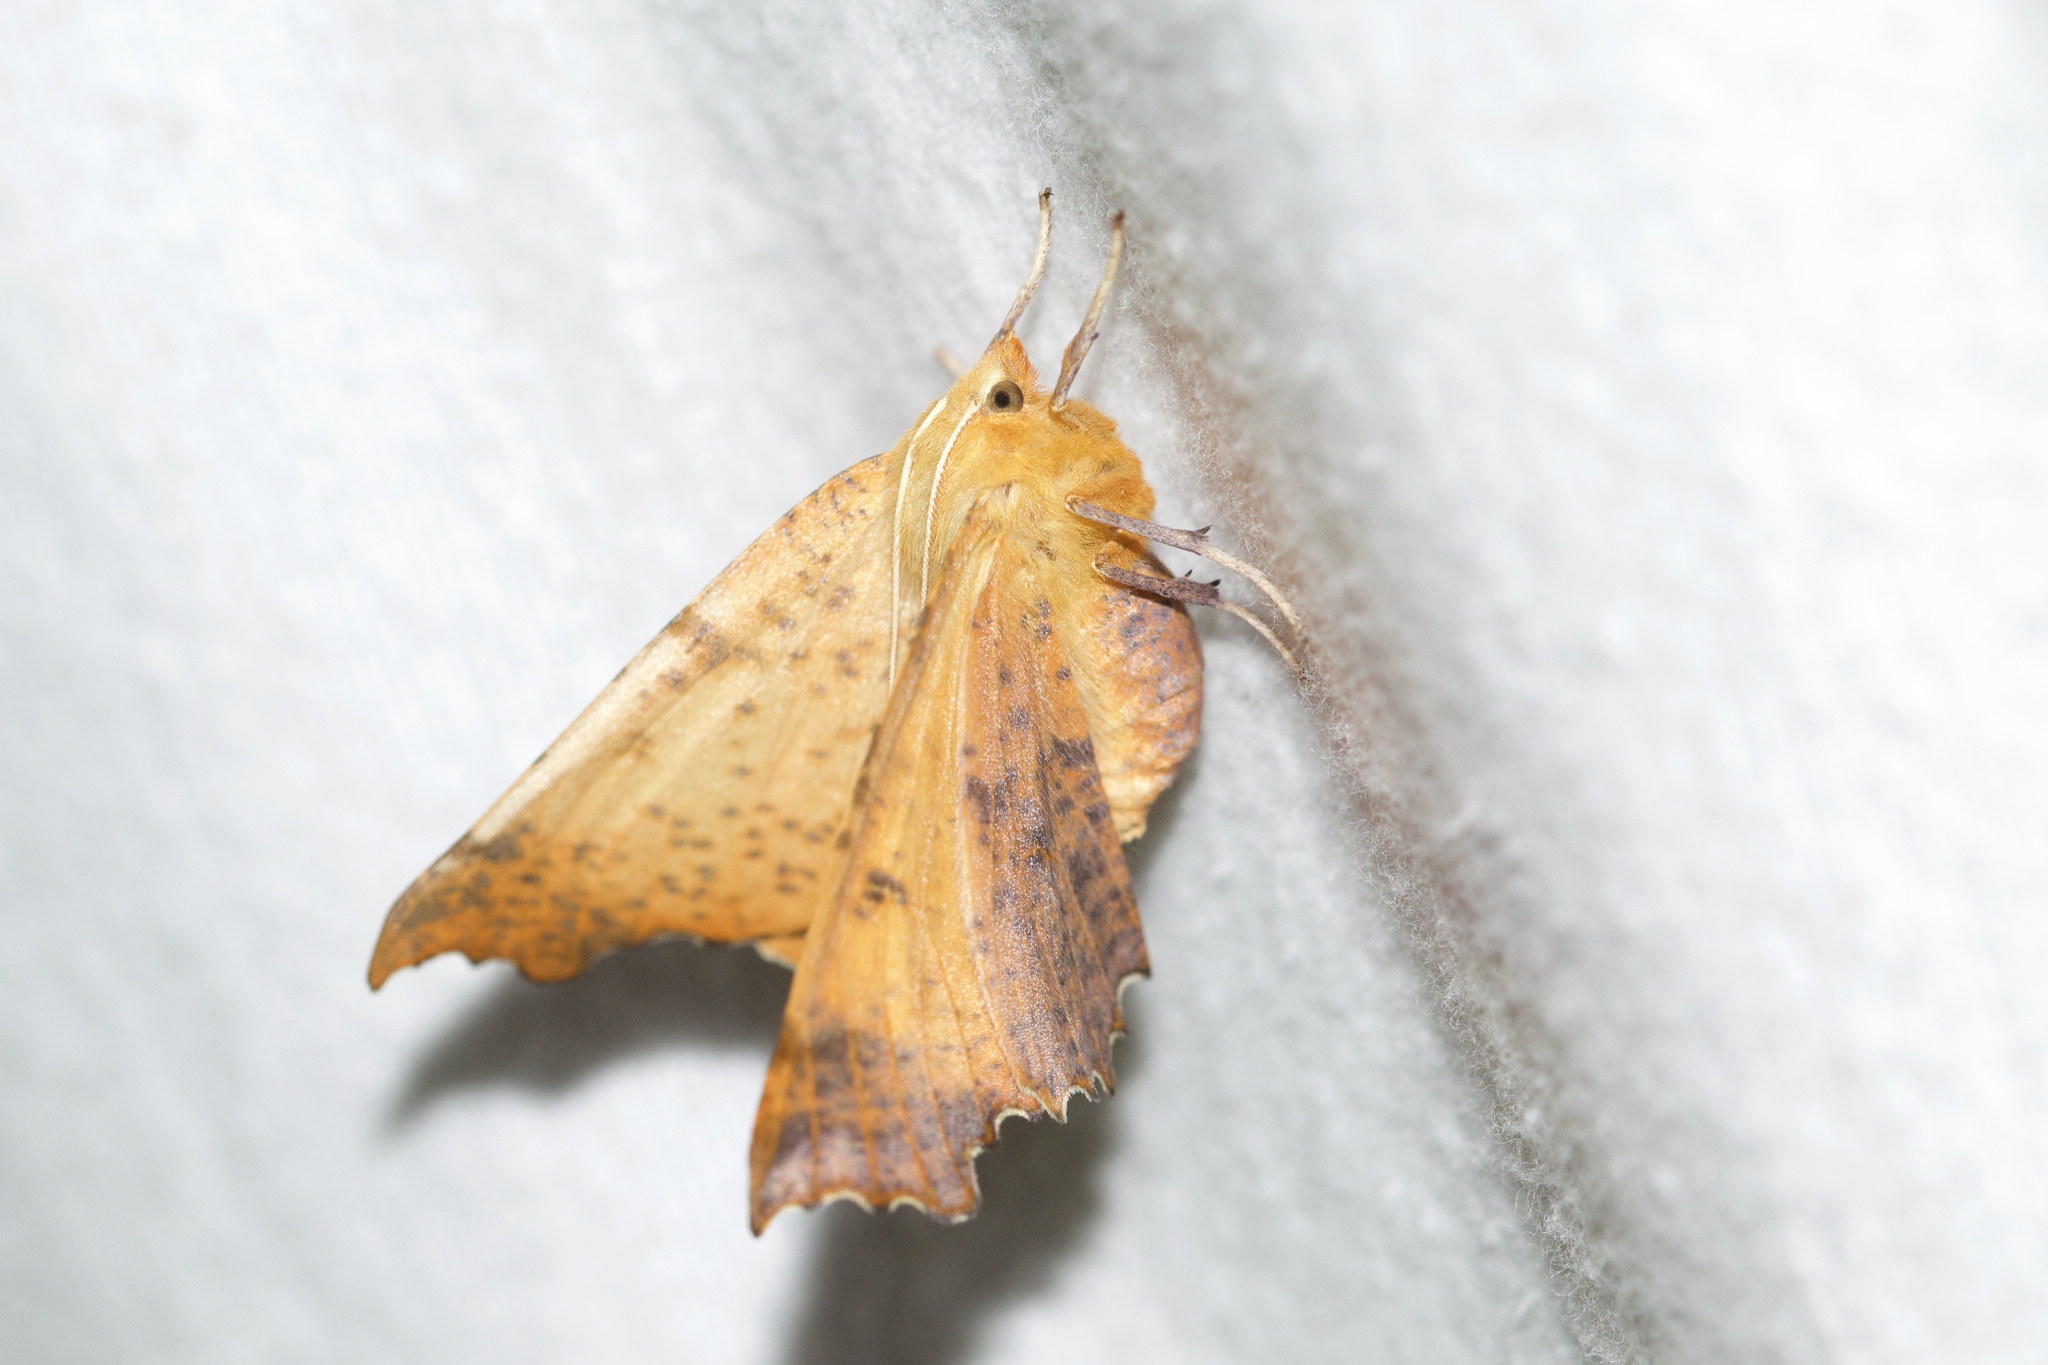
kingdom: Animalia
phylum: Arthropoda
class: Insecta
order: Lepidoptera
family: Geometridae
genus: Ennomos
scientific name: Ennomos magnaria
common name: Maple spanworm
